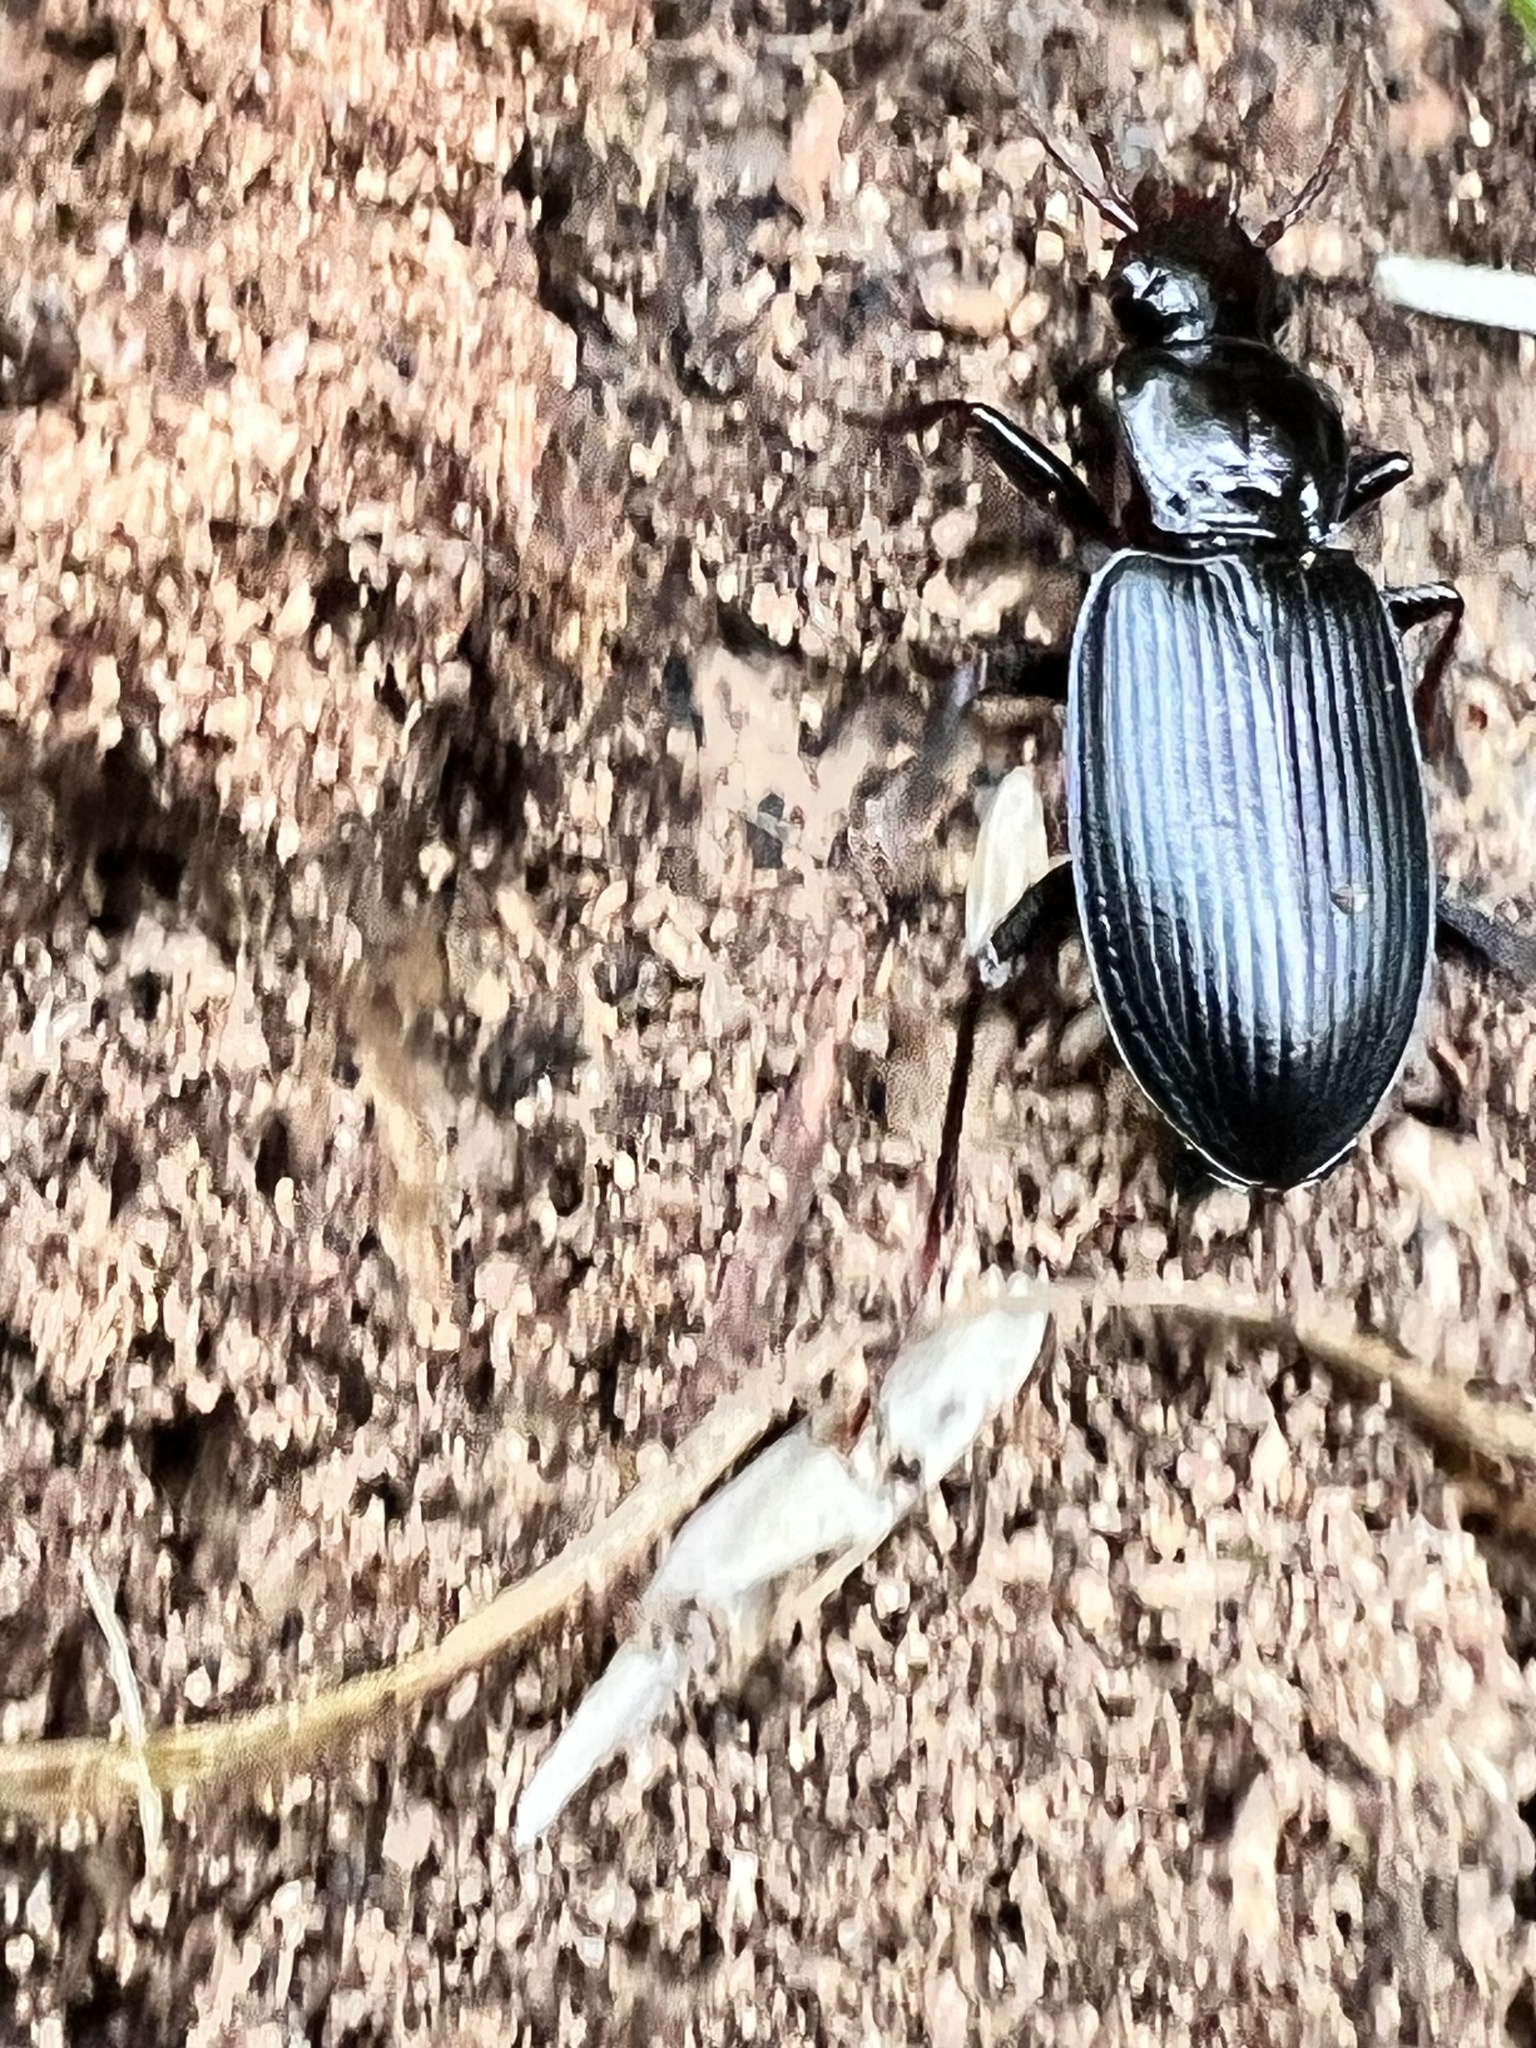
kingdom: Animalia
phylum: Arthropoda
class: Insecta
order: Coleoptera
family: Carabidae
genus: Laemostenus
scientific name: Laemostenus complanatus
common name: Cosmopolitan ground beetle
